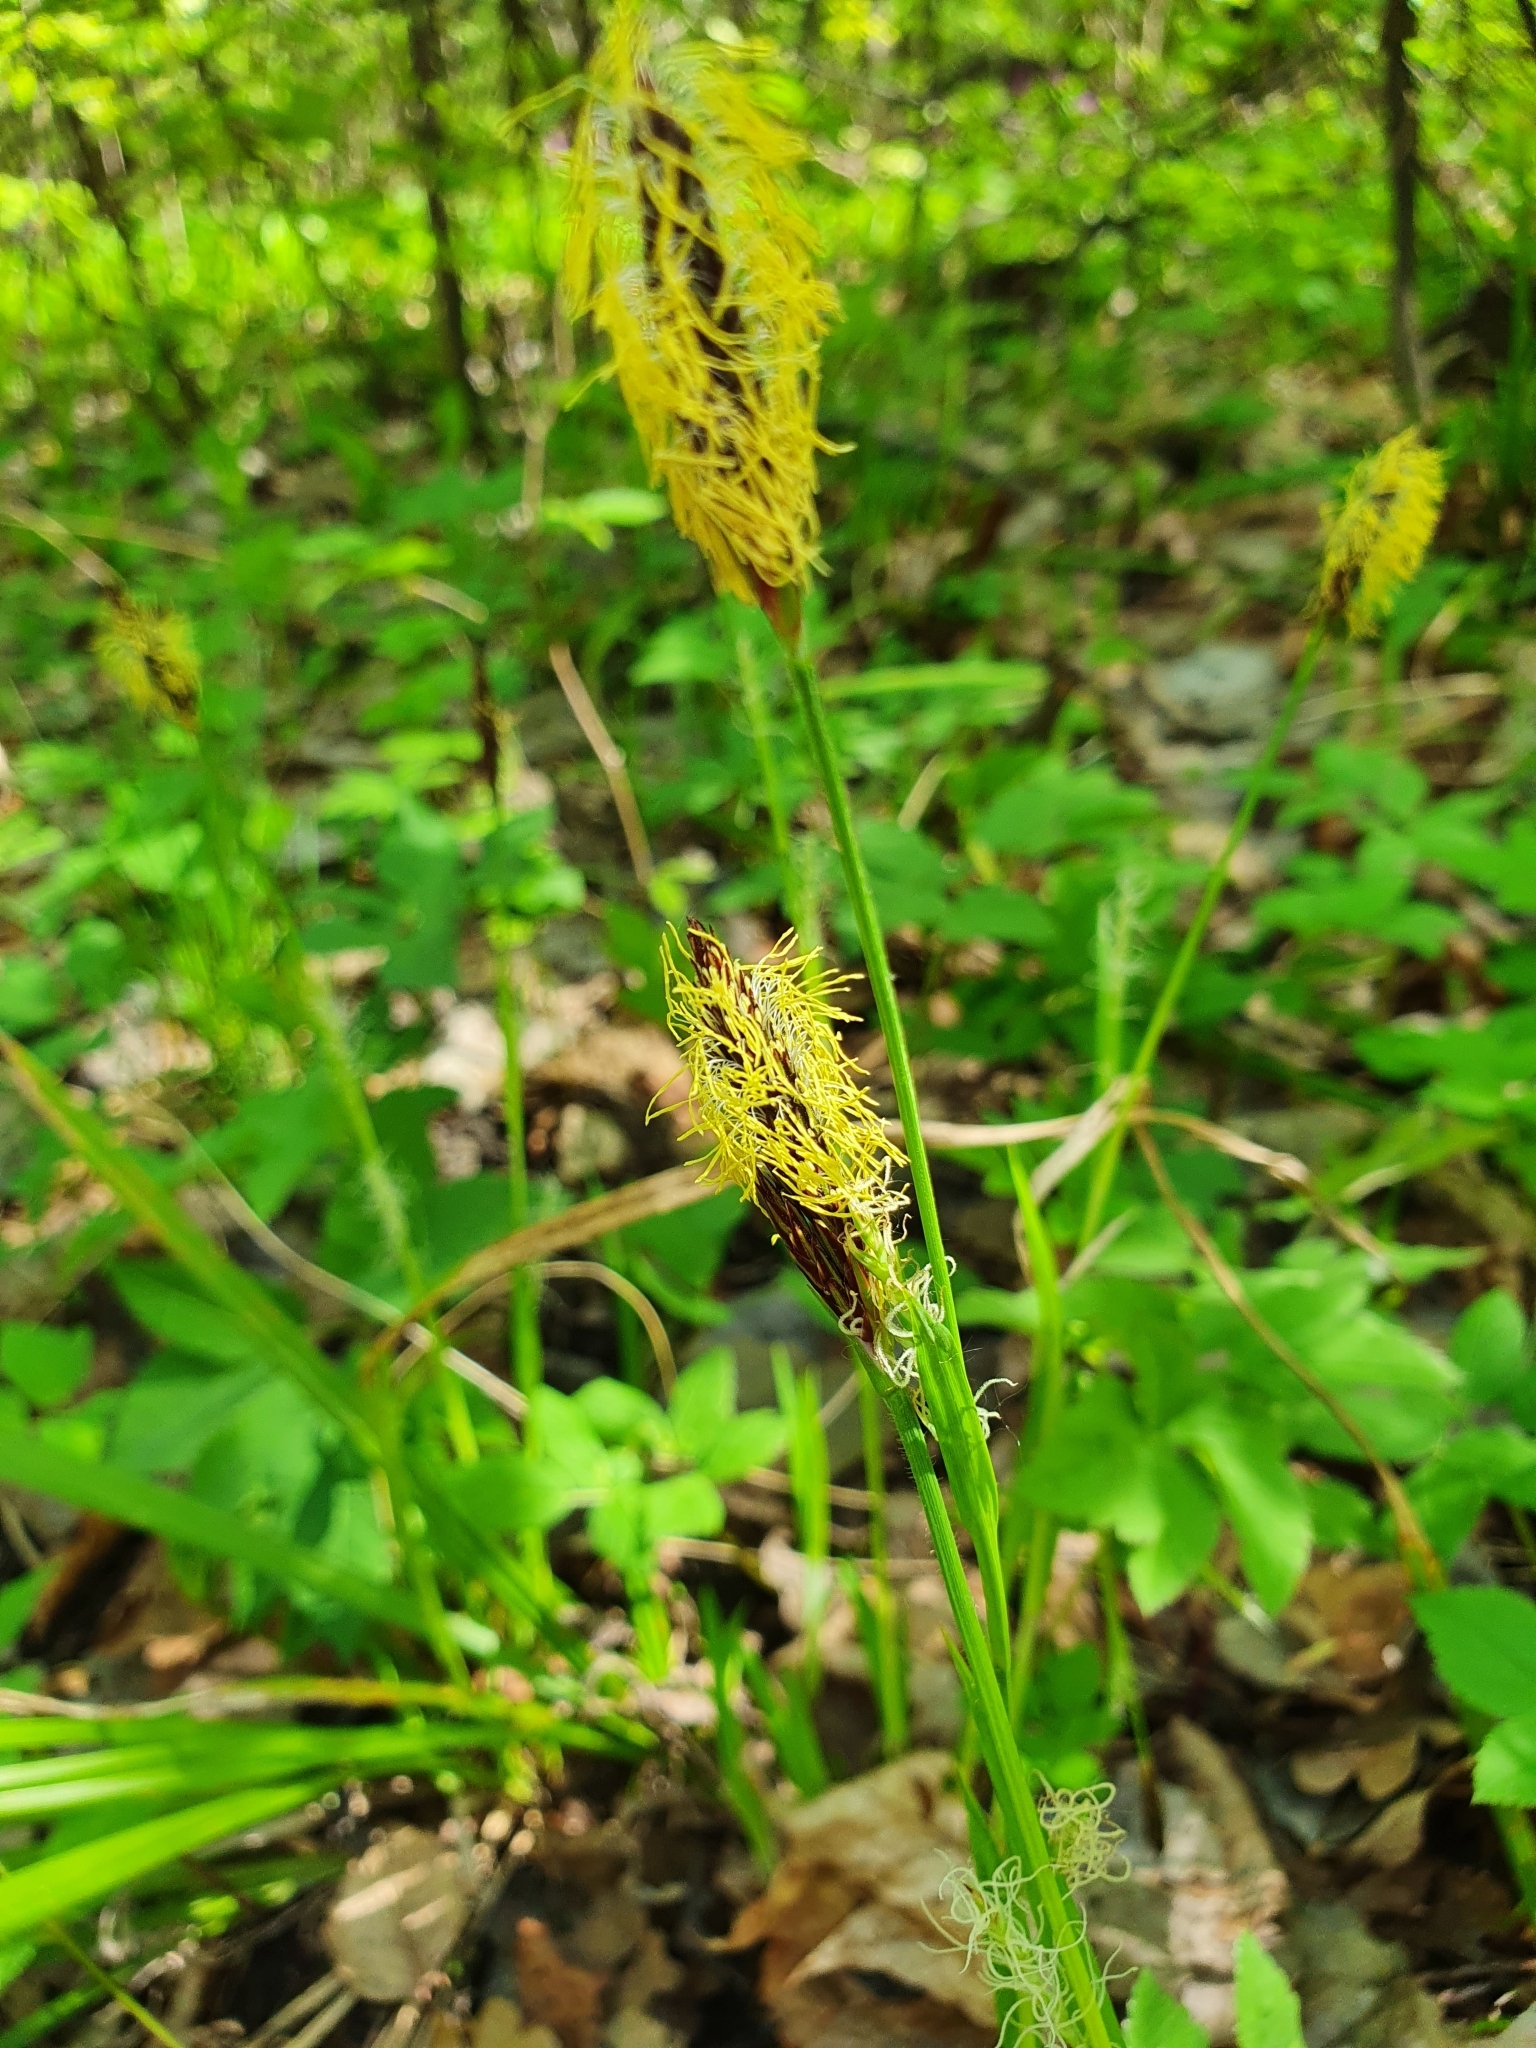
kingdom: Plantae
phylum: Tracheophyta
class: Liliopsida
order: Poales
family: Cyperaceae
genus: Carex
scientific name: Carex pilosa
